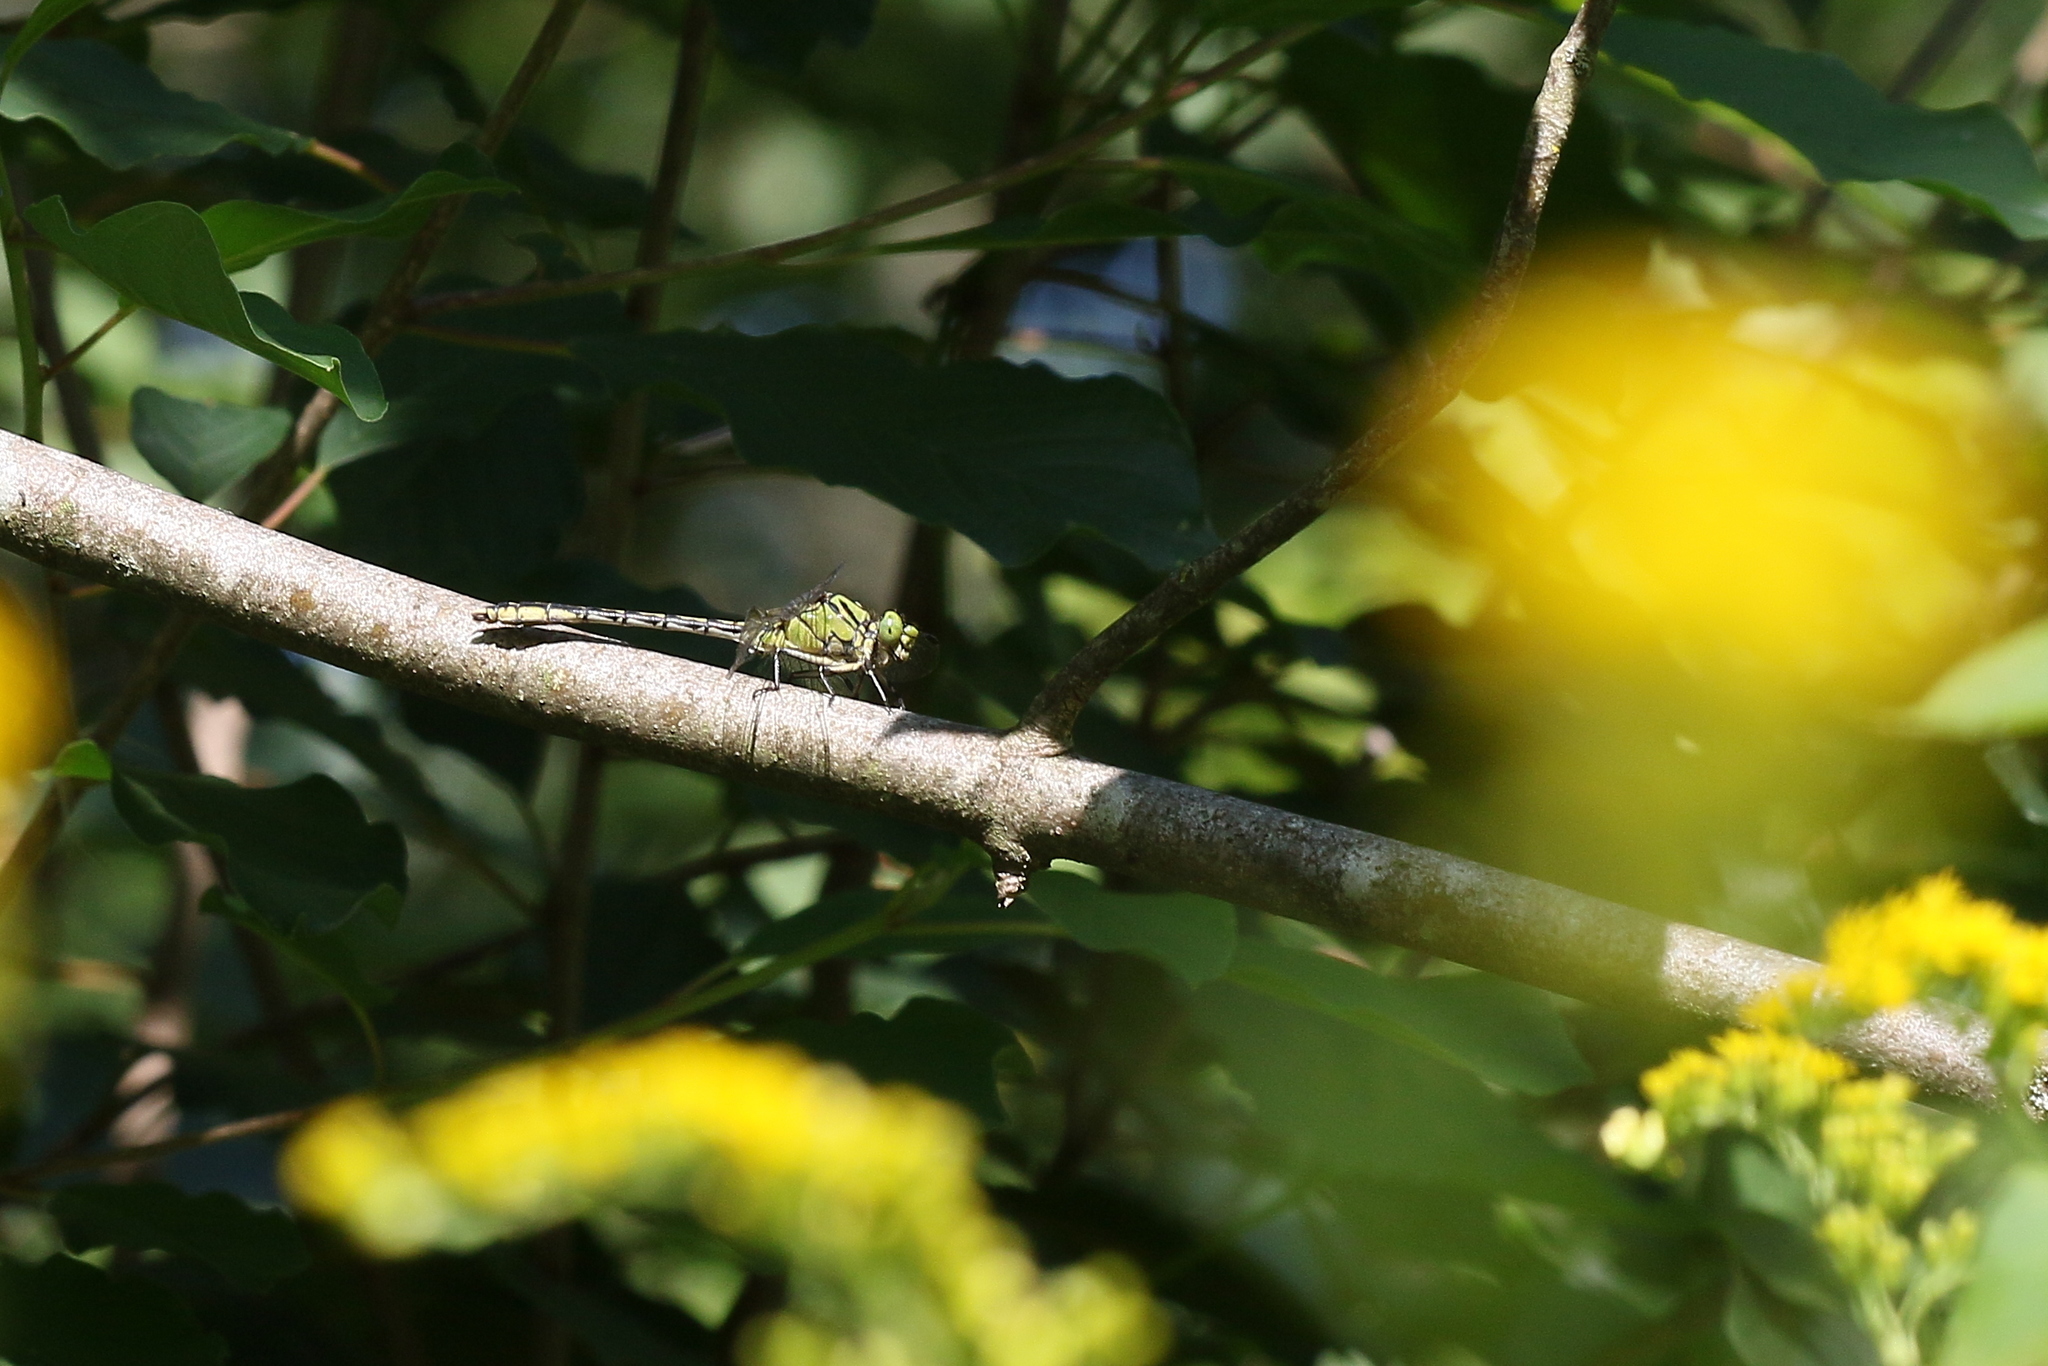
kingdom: Animalia
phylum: Arthropoda
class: Insecta
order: Odonata
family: Gomphidae
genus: Ophiogomphus
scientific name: Ophiogomphus cecilia
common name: Green snaketail
